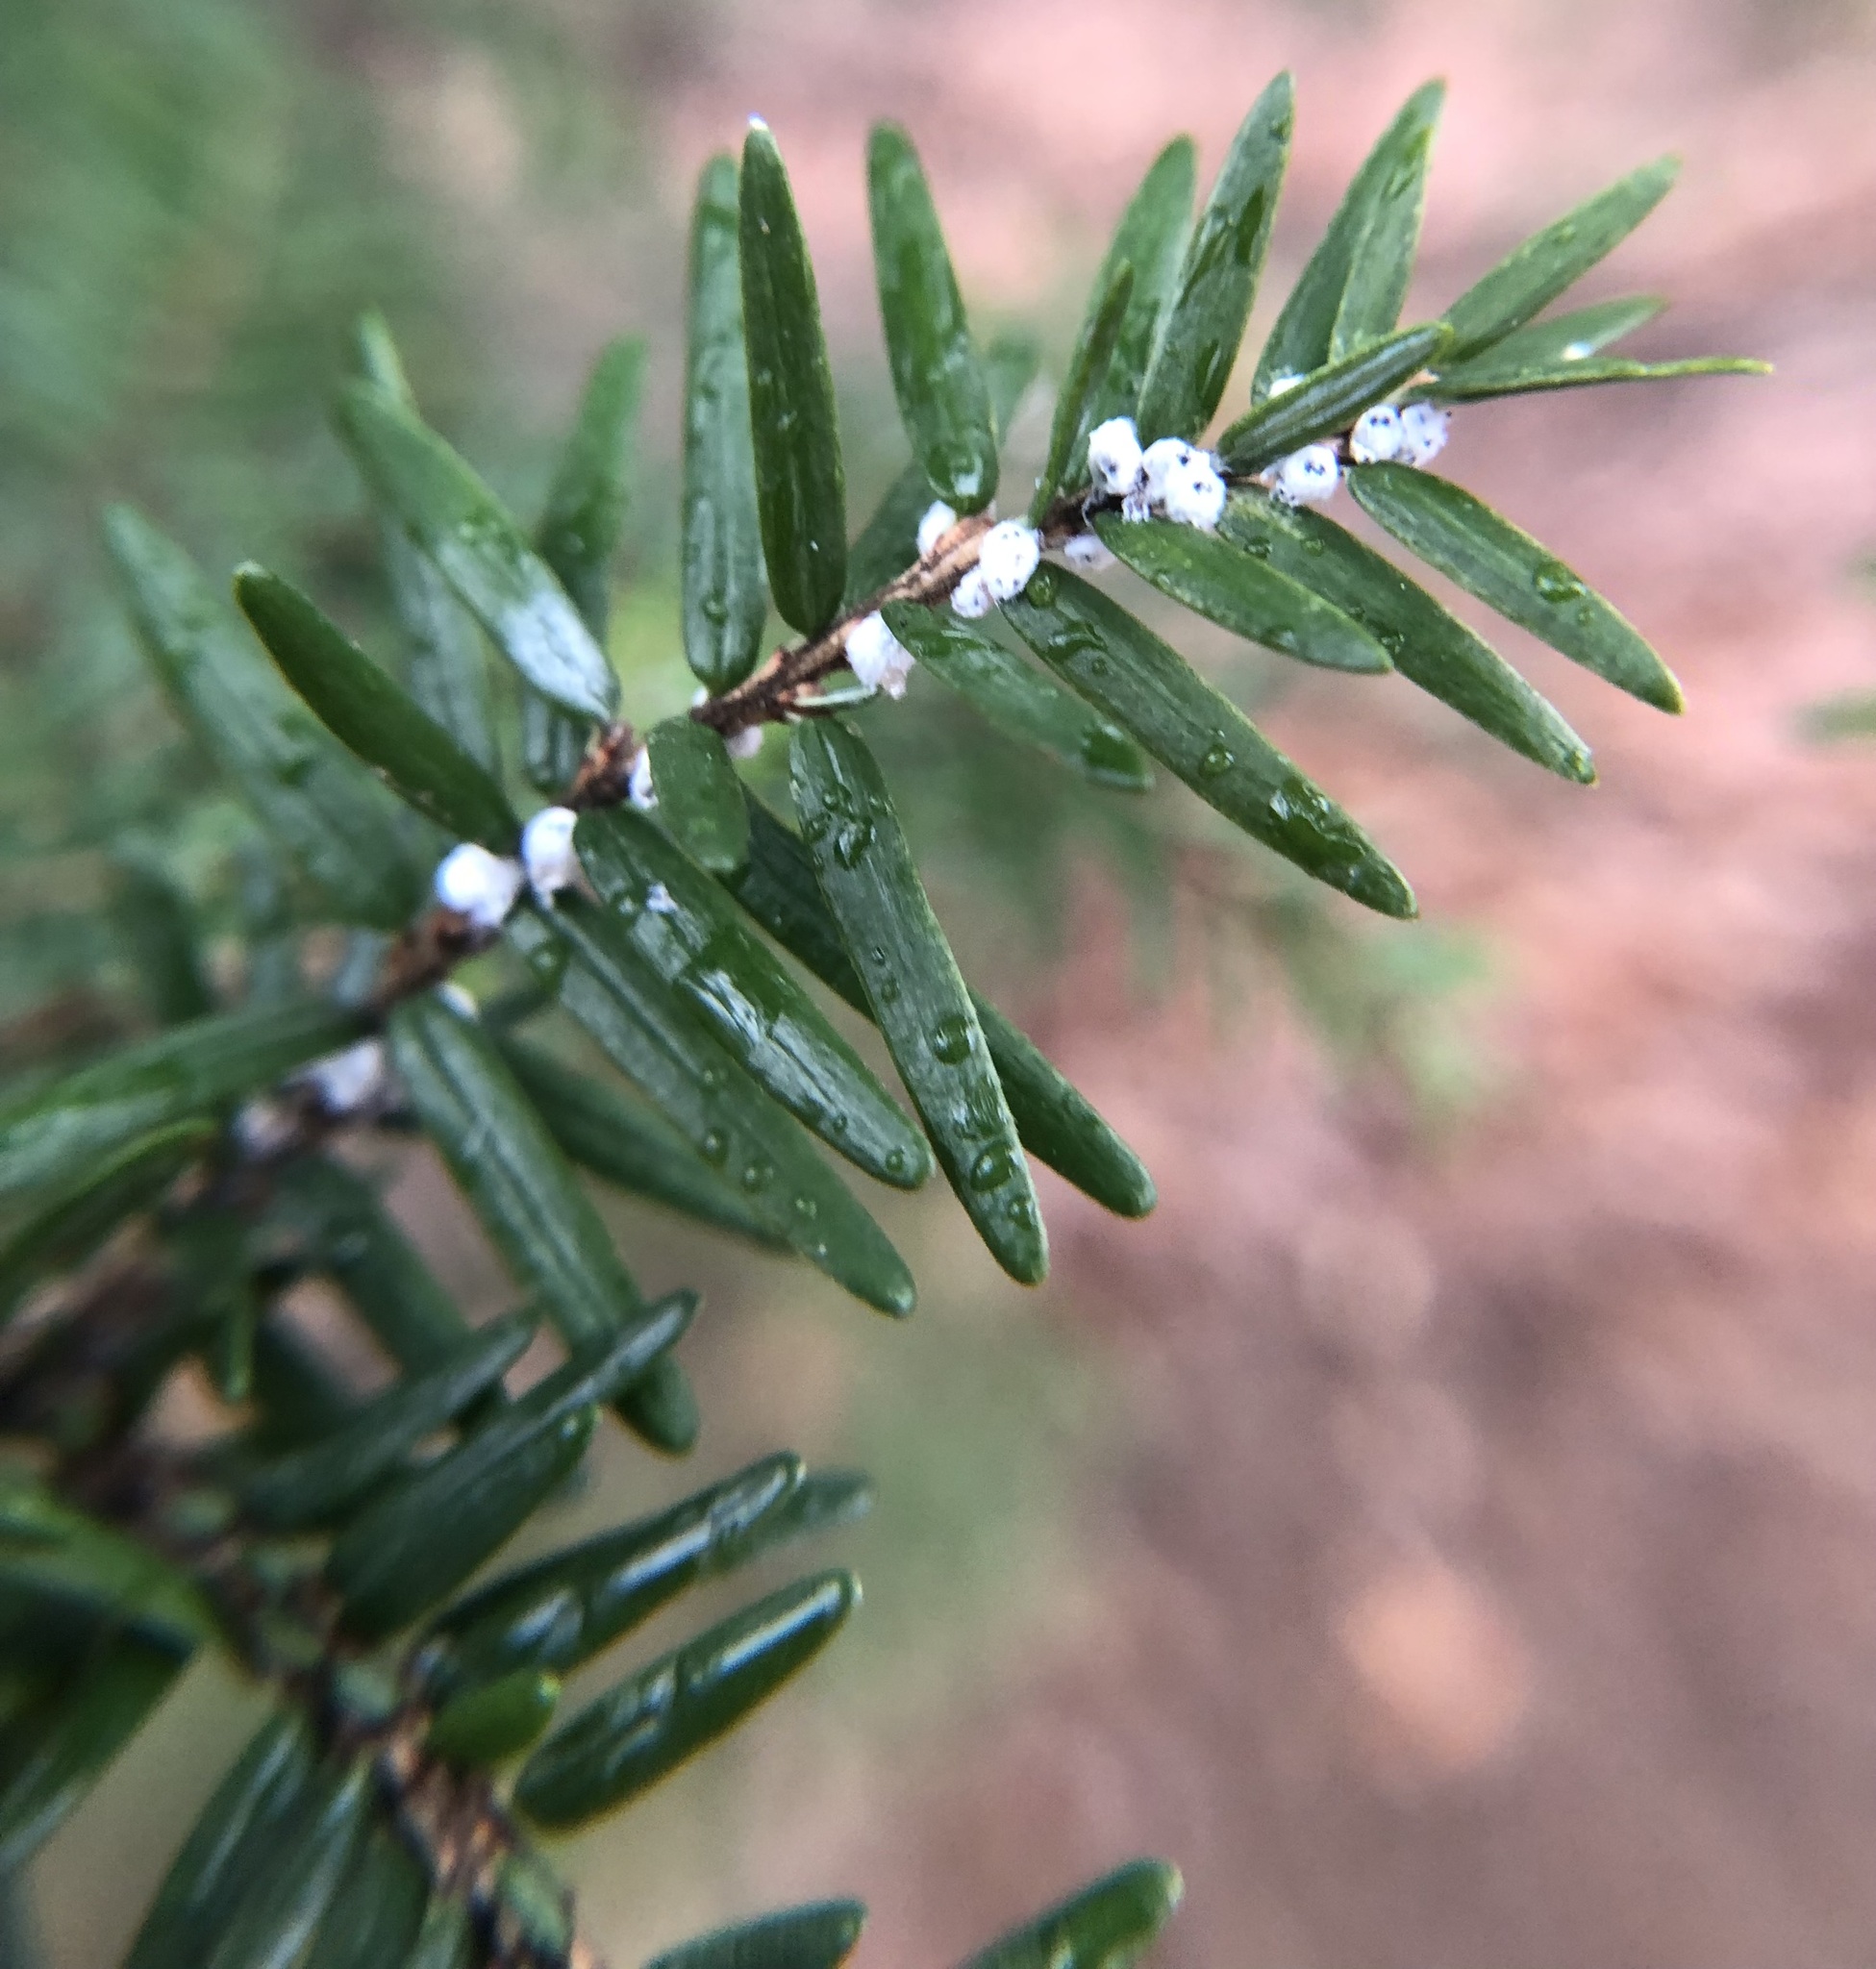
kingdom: Animalia
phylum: Arthropoda
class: Insecta
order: Hemiptera
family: Adelgidae
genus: Adelges
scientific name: Adelges tsugae
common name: Hemlock woolly adelgid
